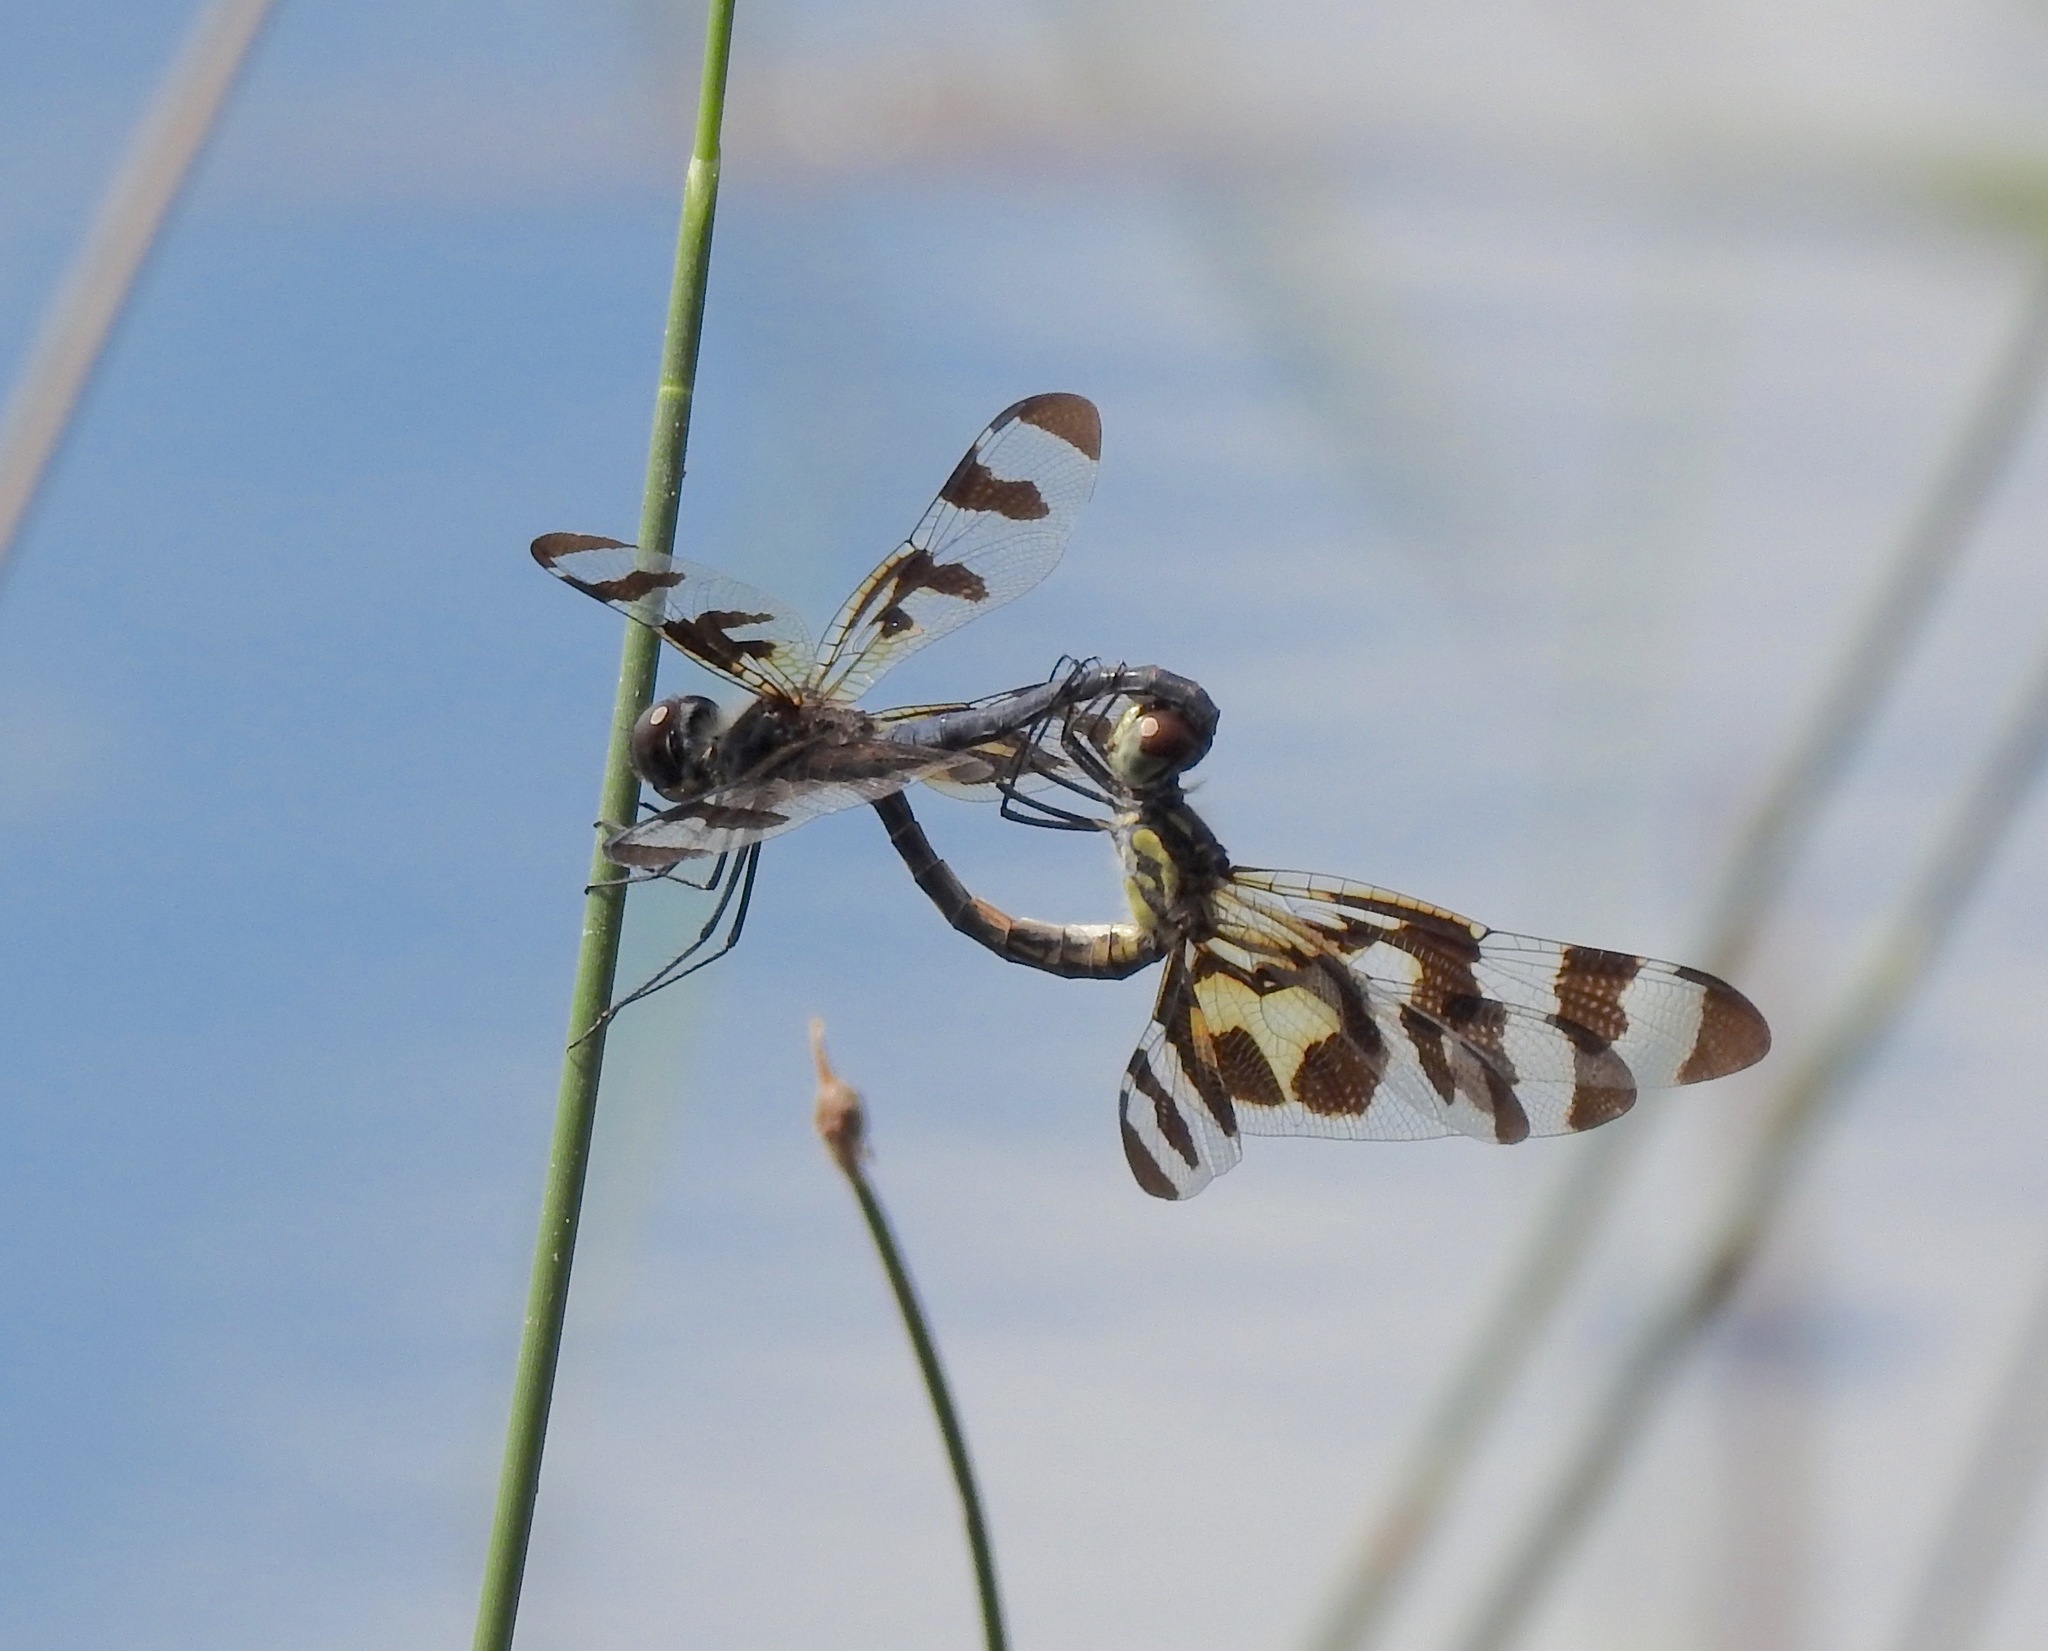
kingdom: Animalia
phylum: Arthropoda
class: Insecta
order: Odonata
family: Libellulidae
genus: Celithemis
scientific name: Celithemis fasciata
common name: Banded pennant
